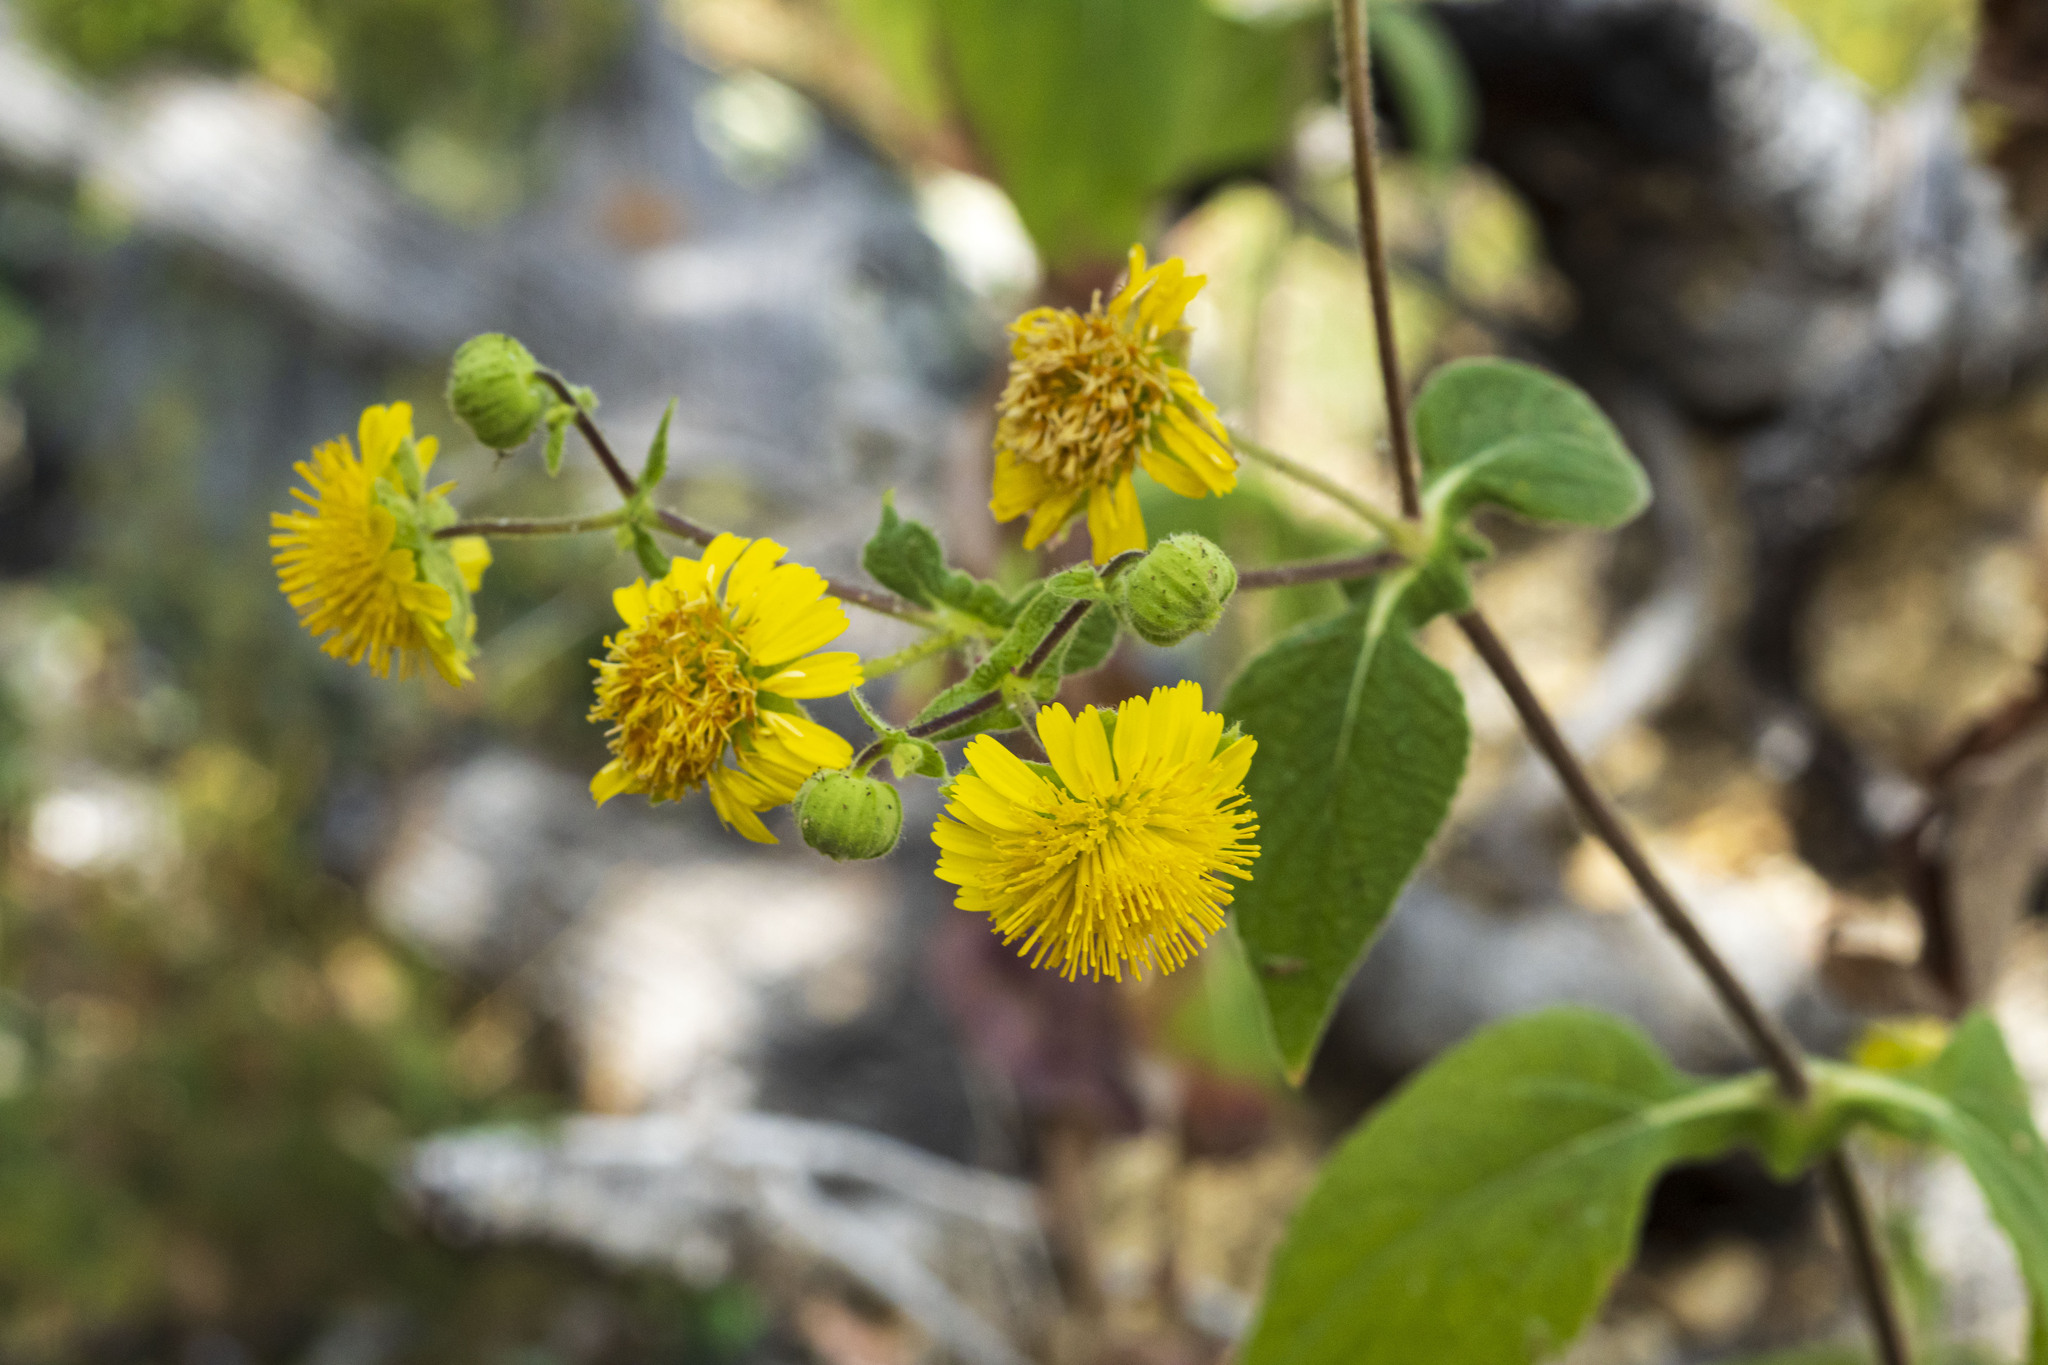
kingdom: Plantae
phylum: Tracheophyta
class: Magnoliopsida
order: Asterales
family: Asteraceae
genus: Rumfordia
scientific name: Rumfordia connata
